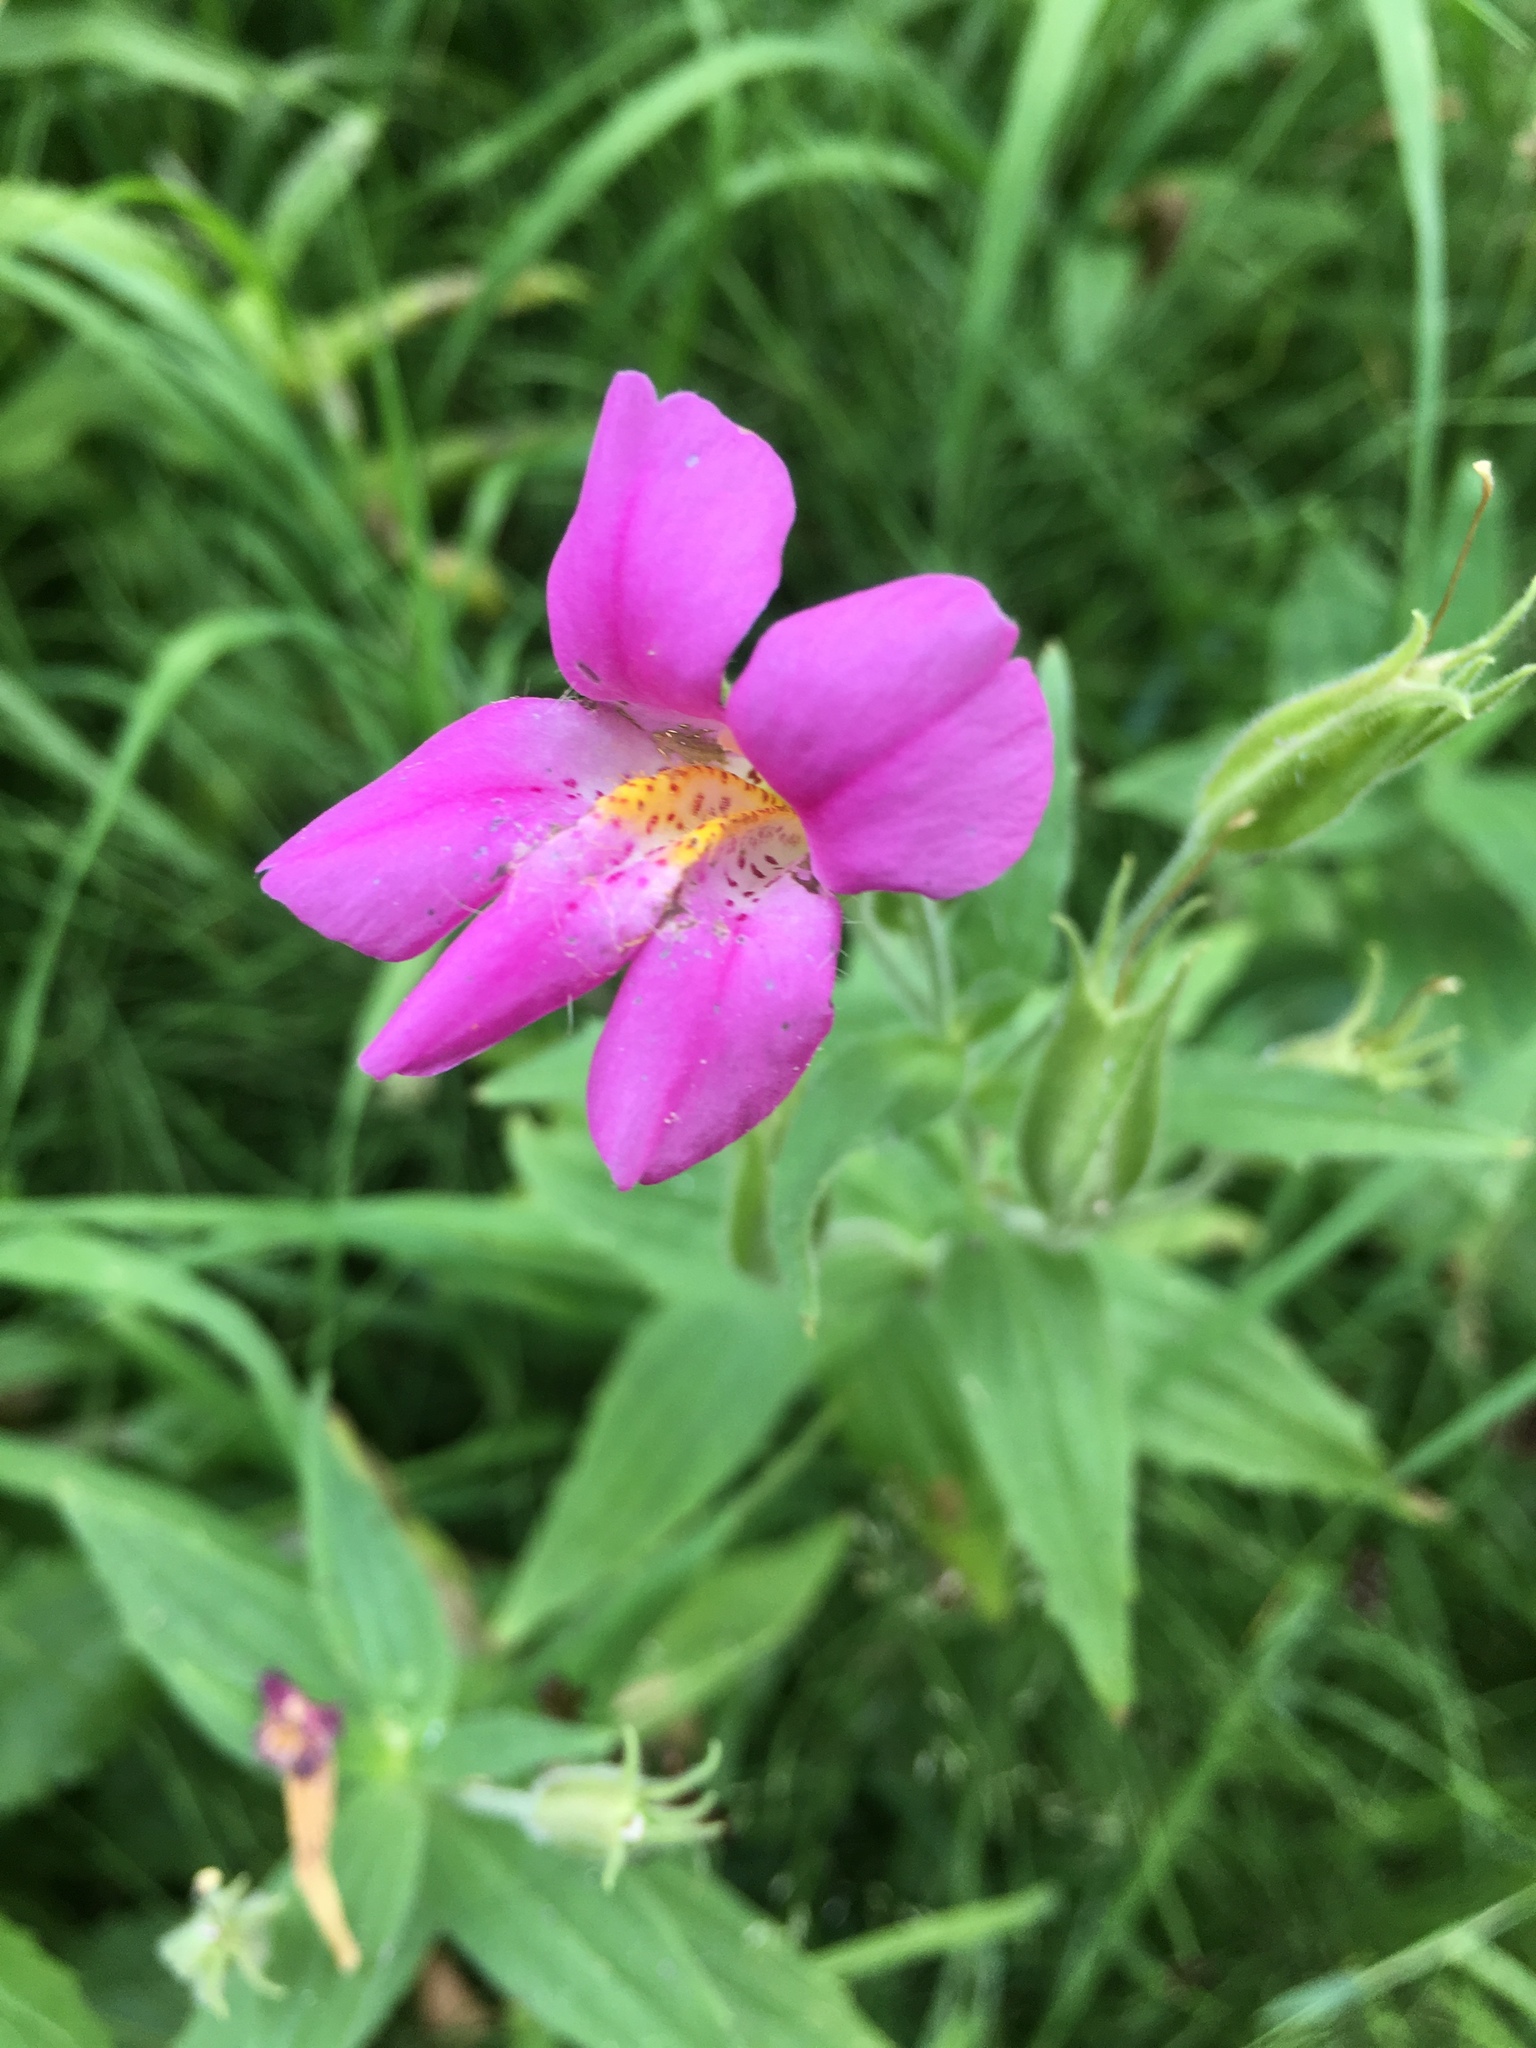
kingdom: Plantae
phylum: Tracheophyta
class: Magnoliopsida
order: Lamiales
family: Phrymaceae
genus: Erythranthe
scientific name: Erythranthe lewisii
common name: Lewis's monkey-flower
